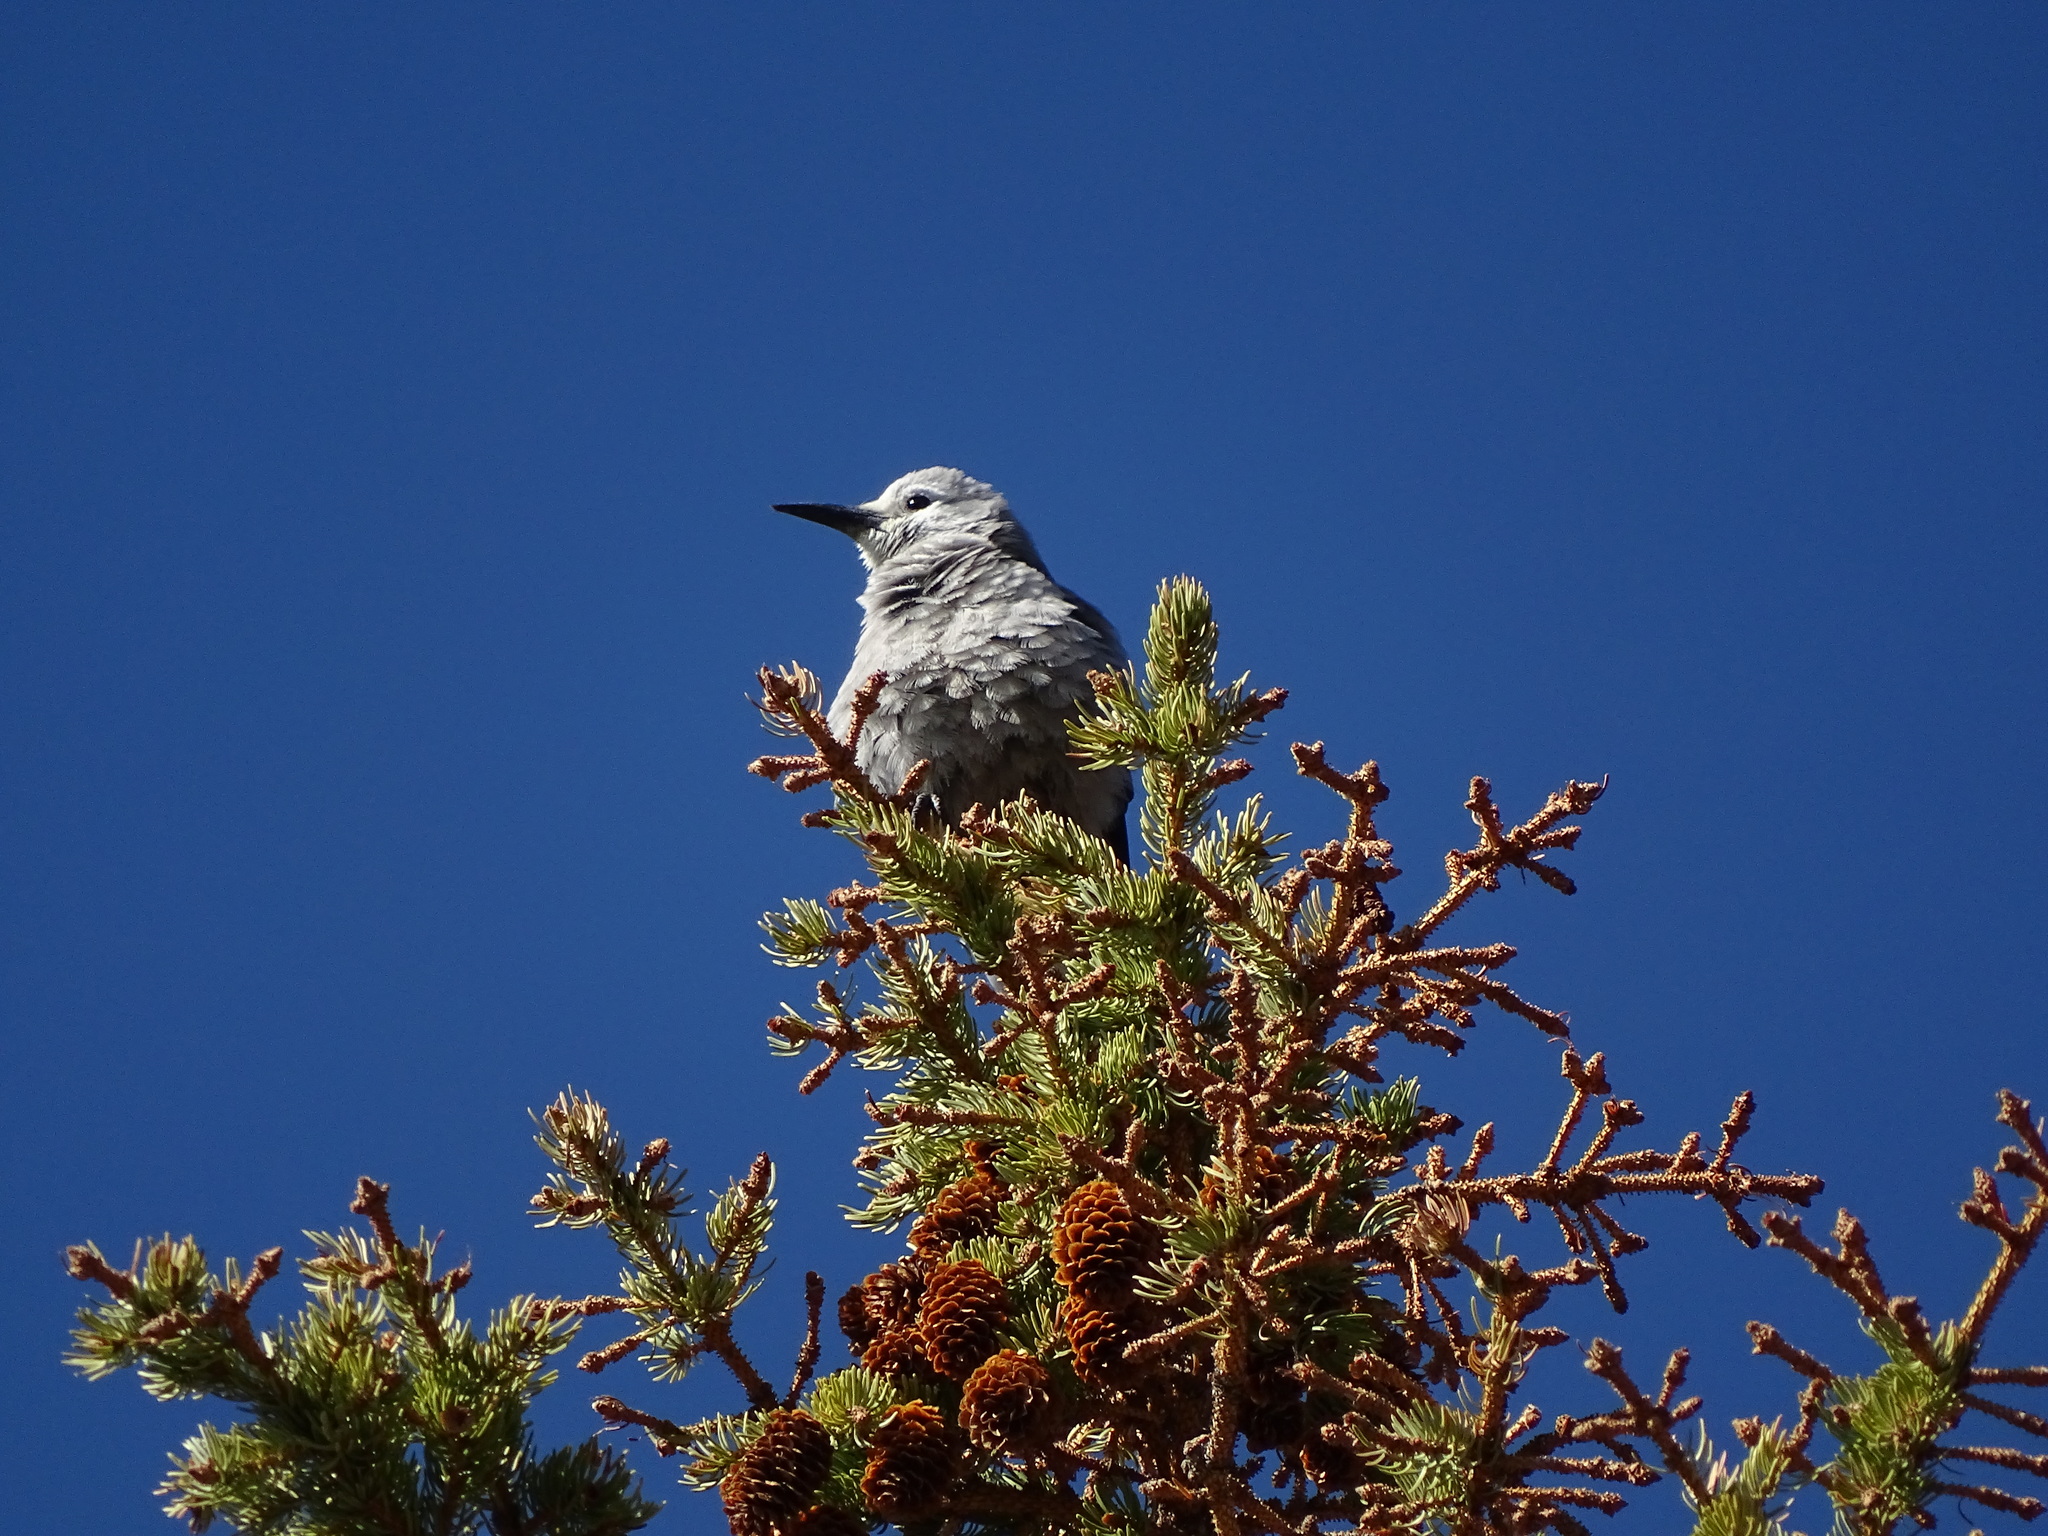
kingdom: Animalia
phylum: Chordata
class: Aves
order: Passeriformes
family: Corvidae
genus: Nucifraga
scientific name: Nucifraga columbiana
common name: Clark's nutcracker
